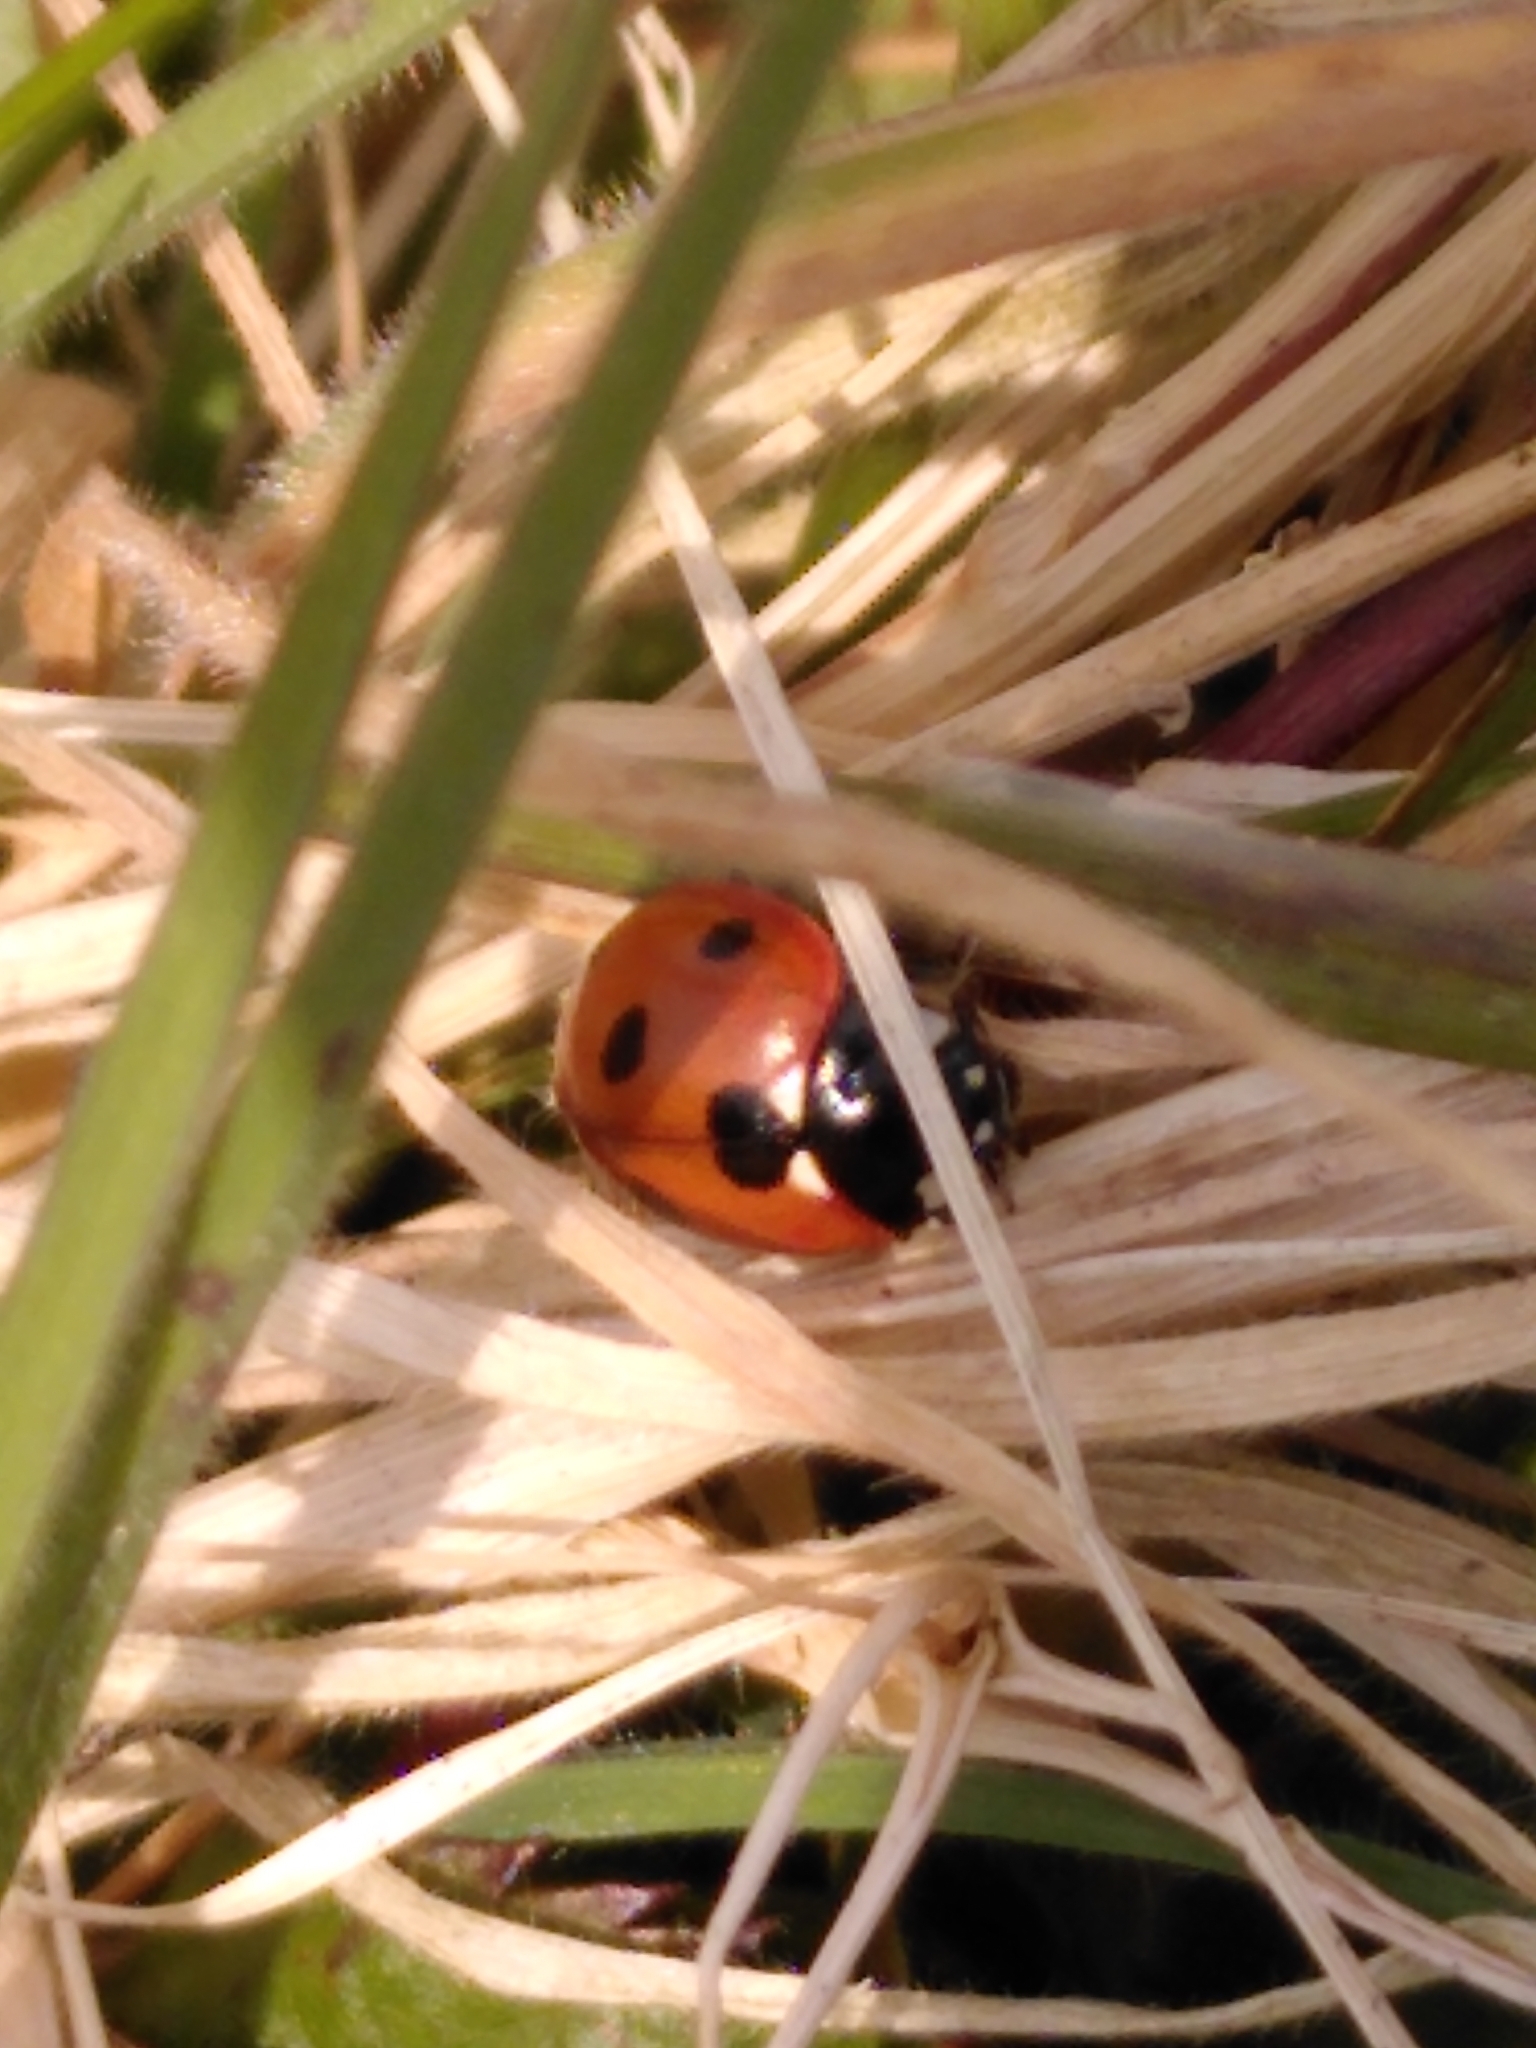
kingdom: Animalia
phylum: Arthropoda
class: Insecta
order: Coleoptera
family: Coccinellidae
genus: Coccinella
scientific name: Coccinella septempunctata
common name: Sevenspotted lady beetle
